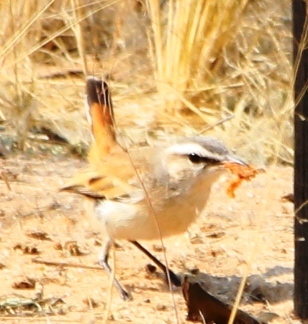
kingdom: Animalia
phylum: Chordata
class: Aves
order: Passeriformes
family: Muscicapidae
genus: Erythropygia
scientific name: Erythropygia paena
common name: Kalahari scrub robin
